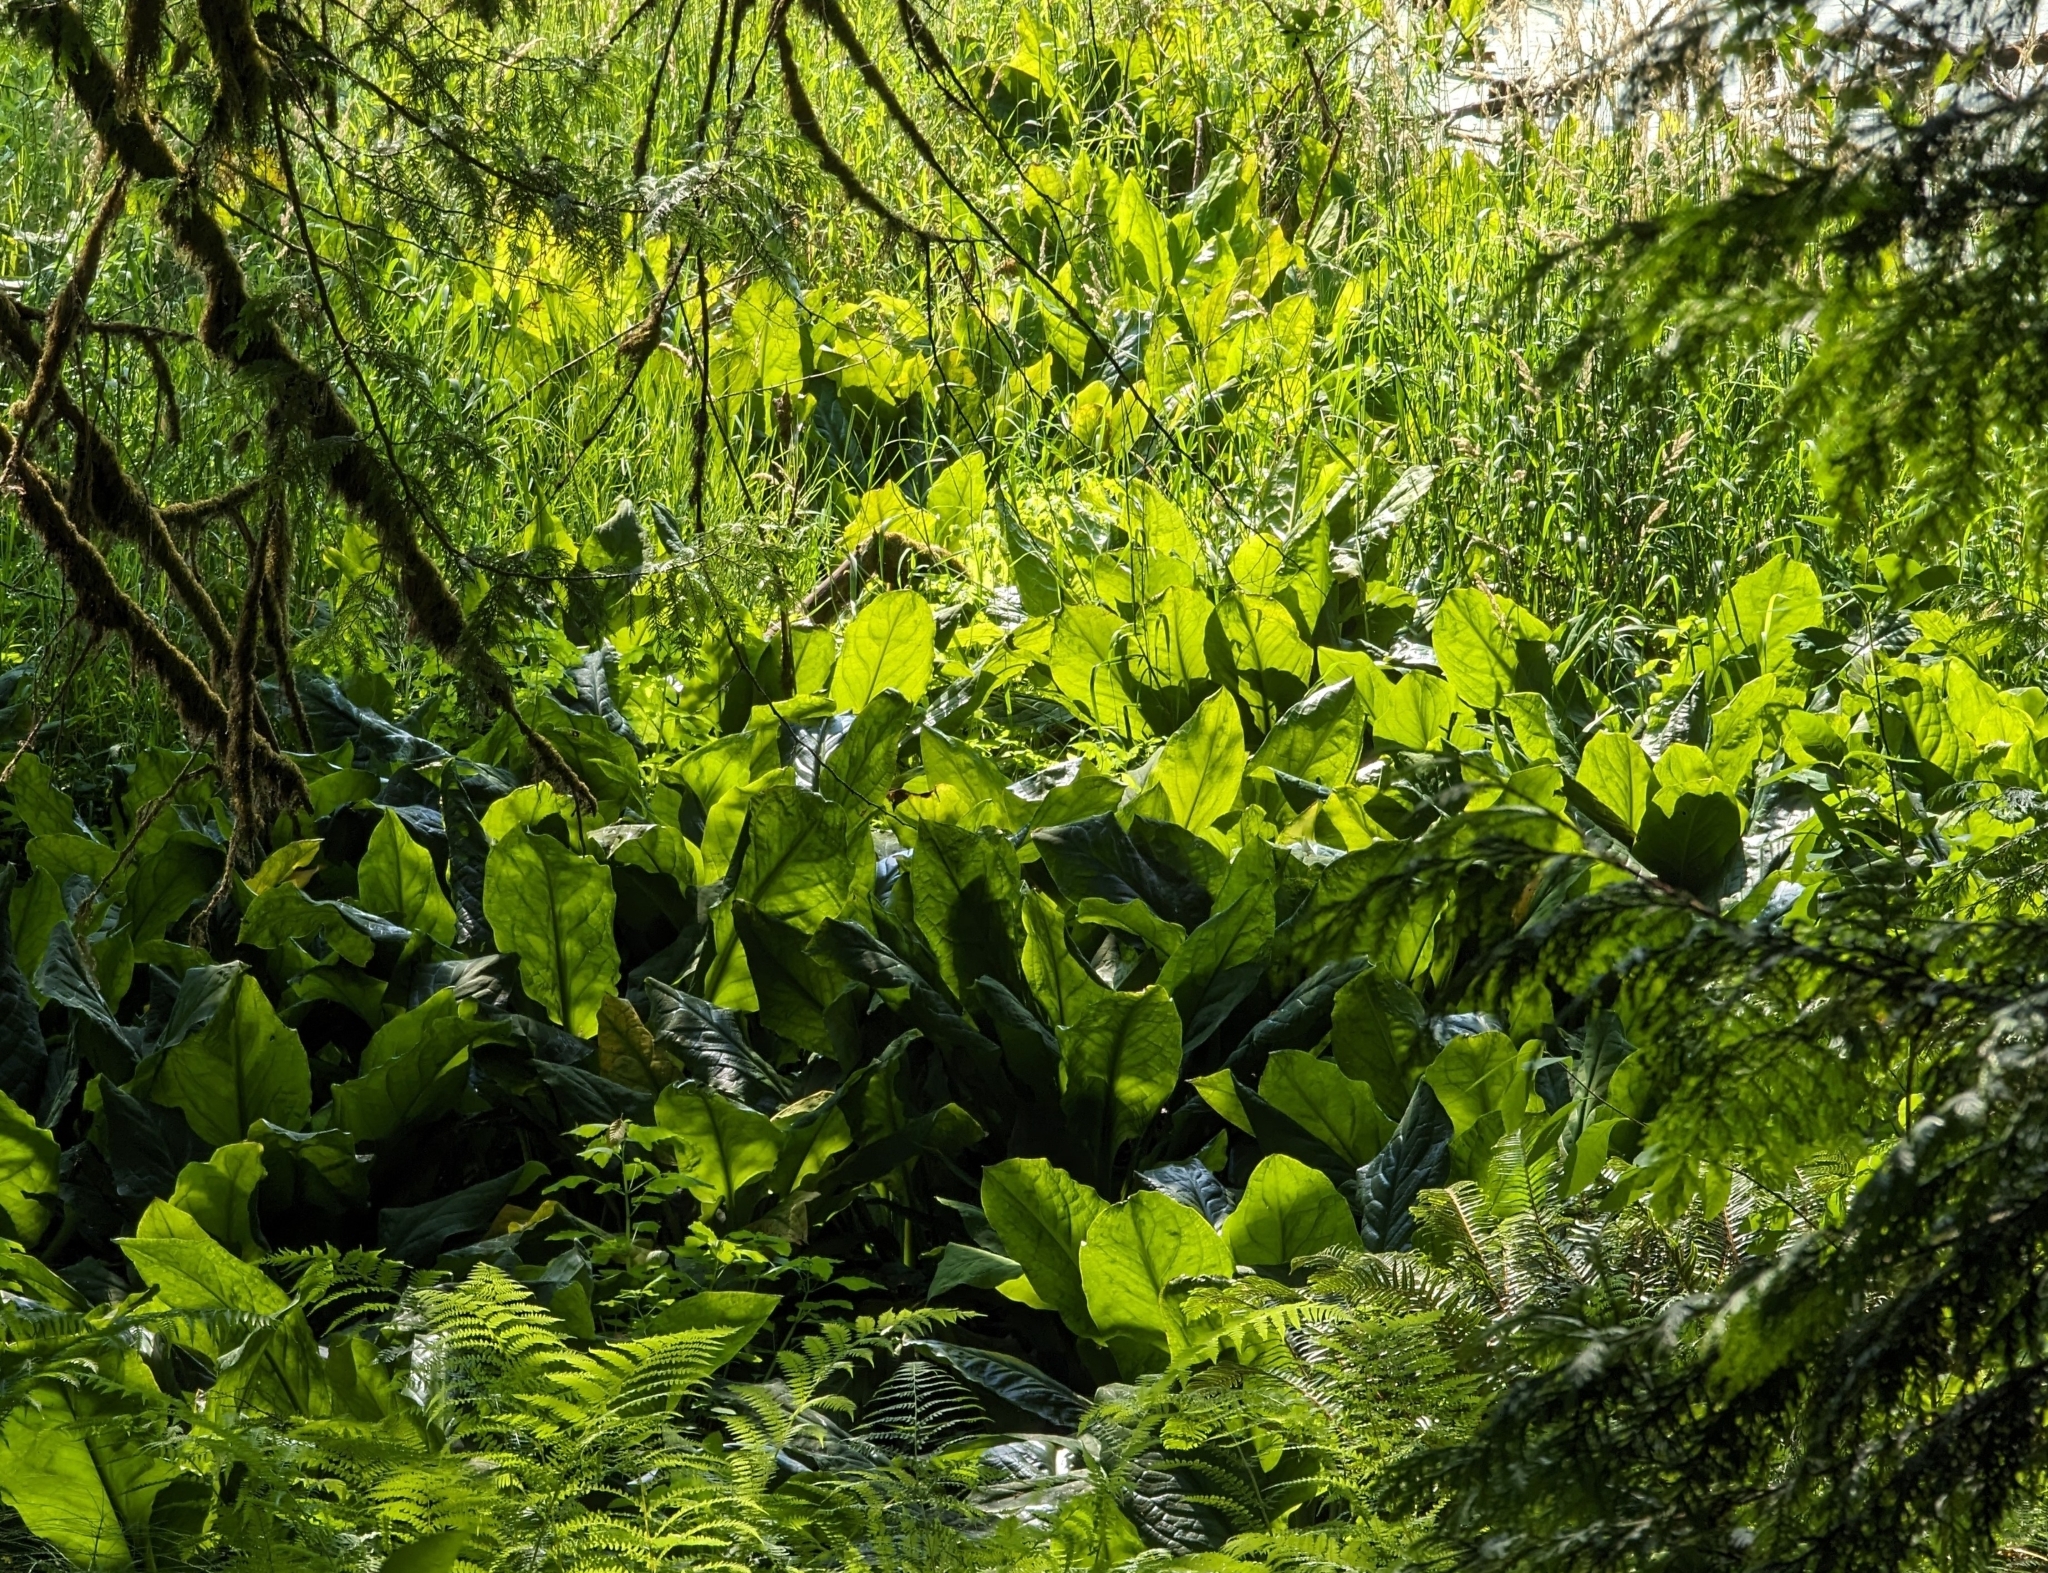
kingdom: Plantae
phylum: Tracheophyta
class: Liliopsida
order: Alismatales
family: Araceae
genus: Lysichiton
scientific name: Lysichiton americanus
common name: American skunk cabbage
